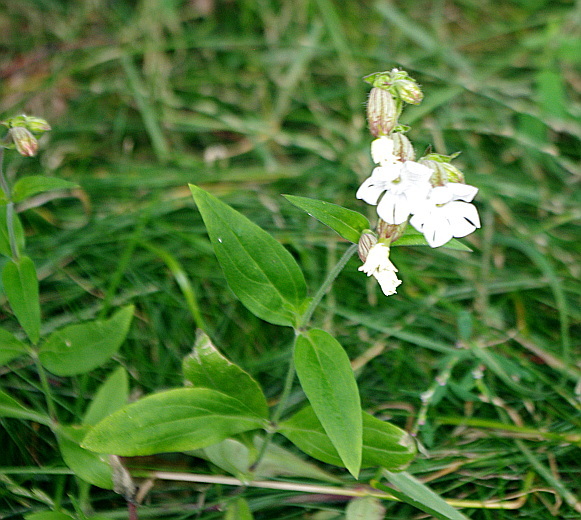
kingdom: Plantae
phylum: Tracheophyta
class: Magnoliopsida
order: Caryophyllales
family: Caryophyllaceae
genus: Silene
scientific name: Silene latifolia
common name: White campion
